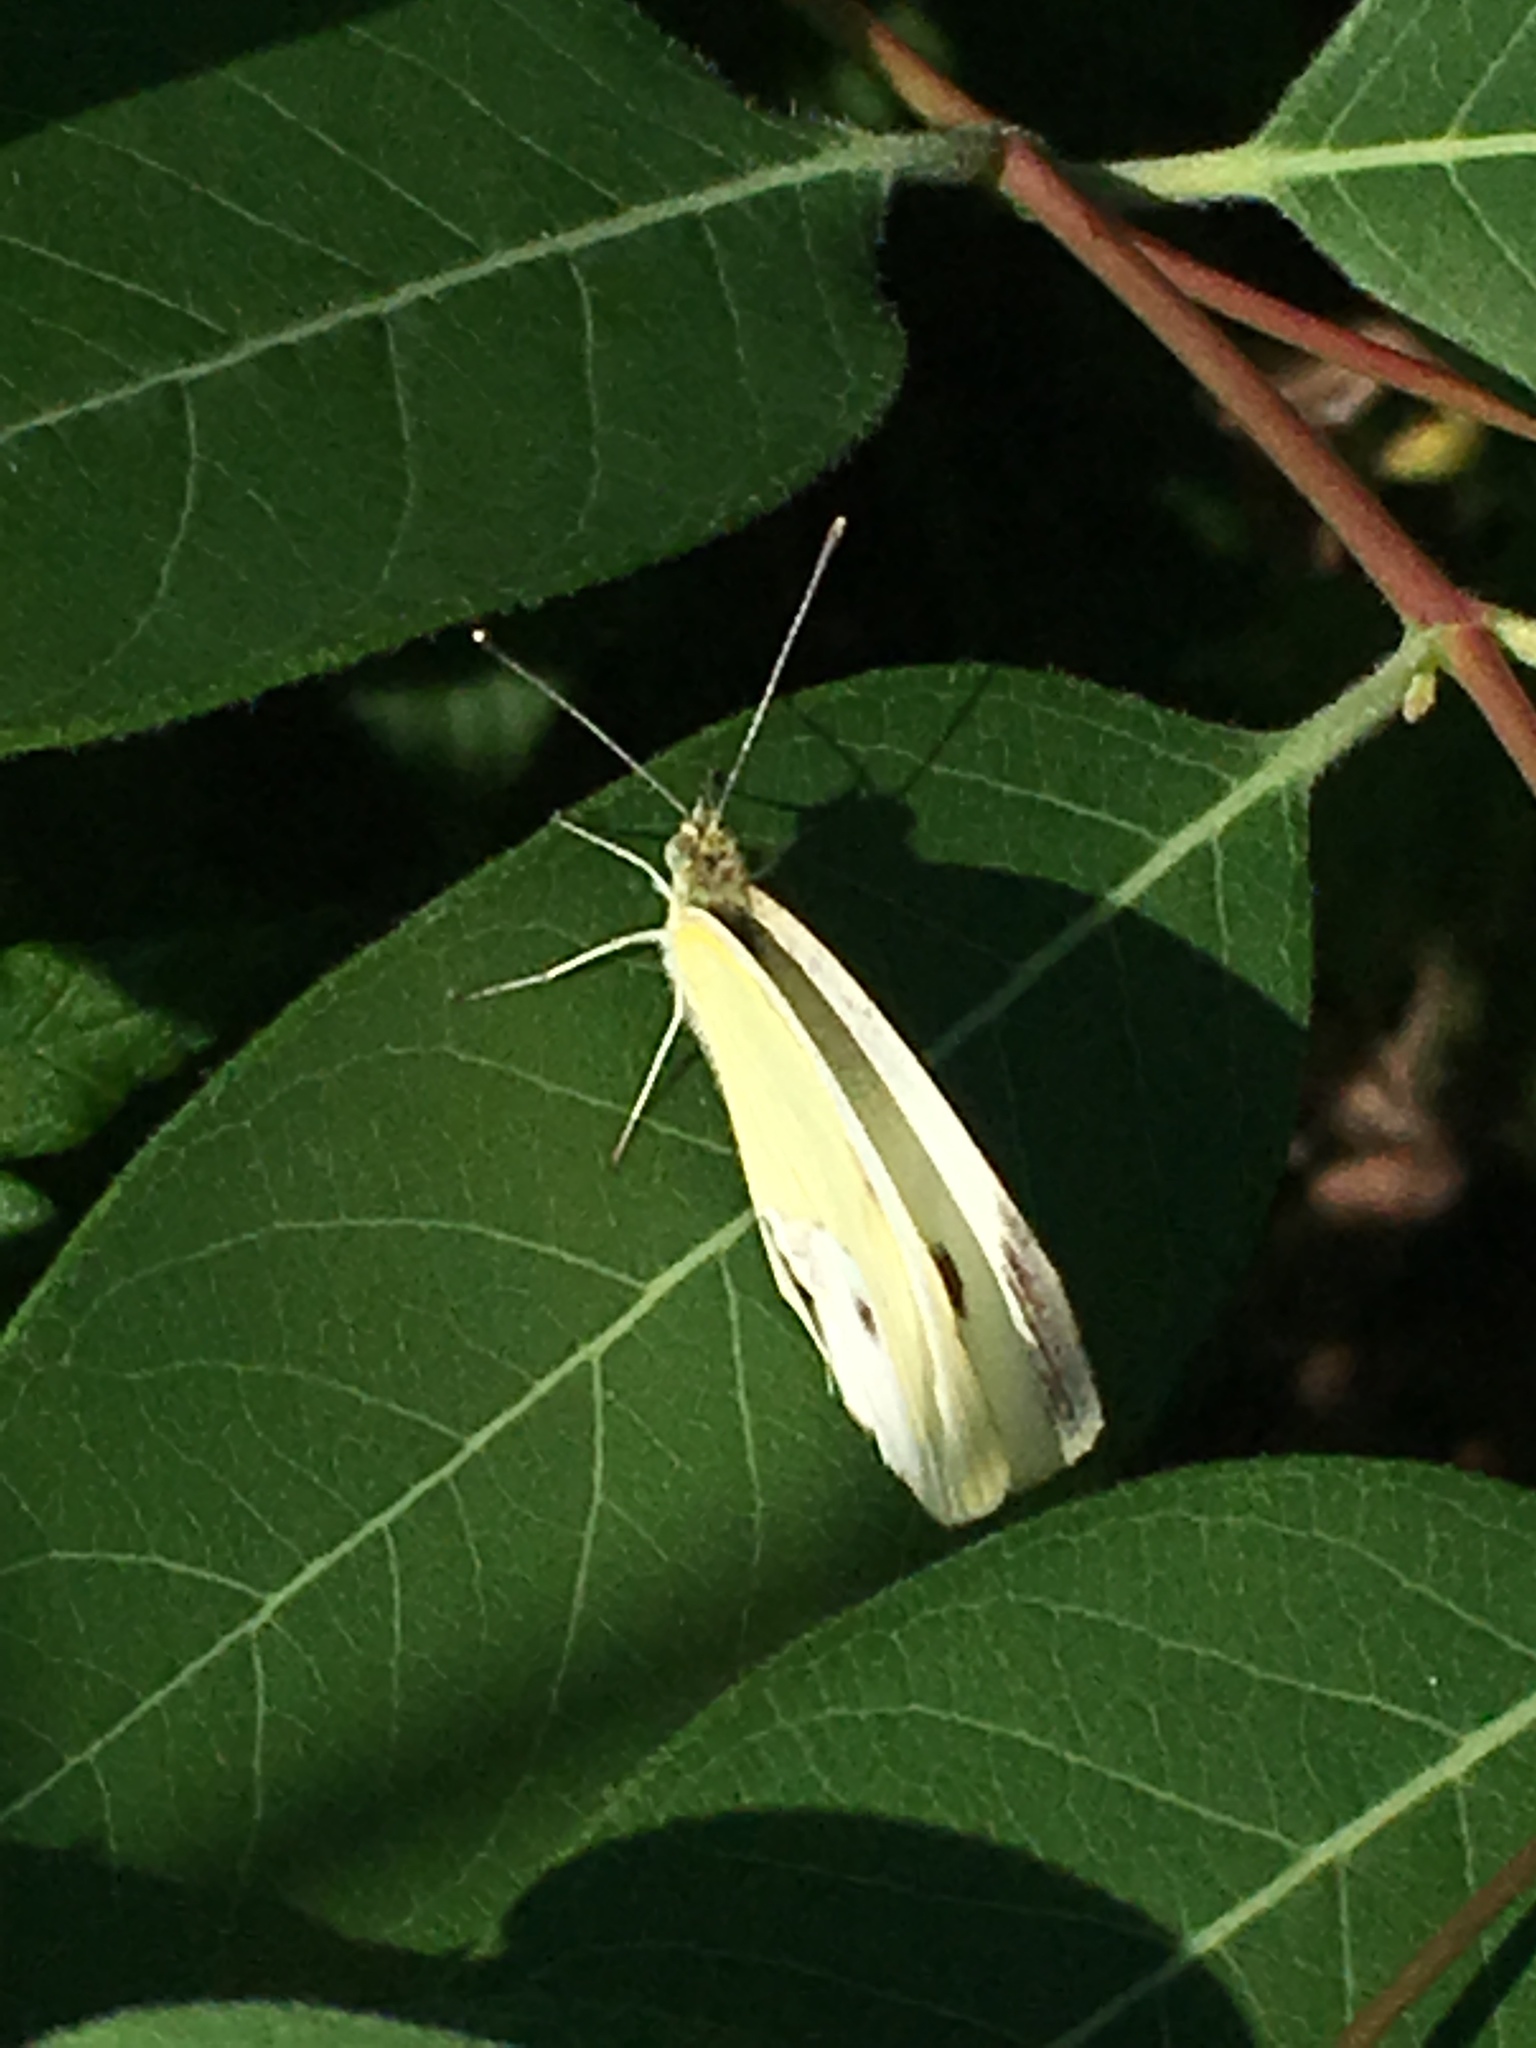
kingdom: Animalia
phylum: Arthropoda
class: Insecta
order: Lepidoptera
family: Pieridae
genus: Pieris
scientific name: Pieris rapae
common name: Small white
